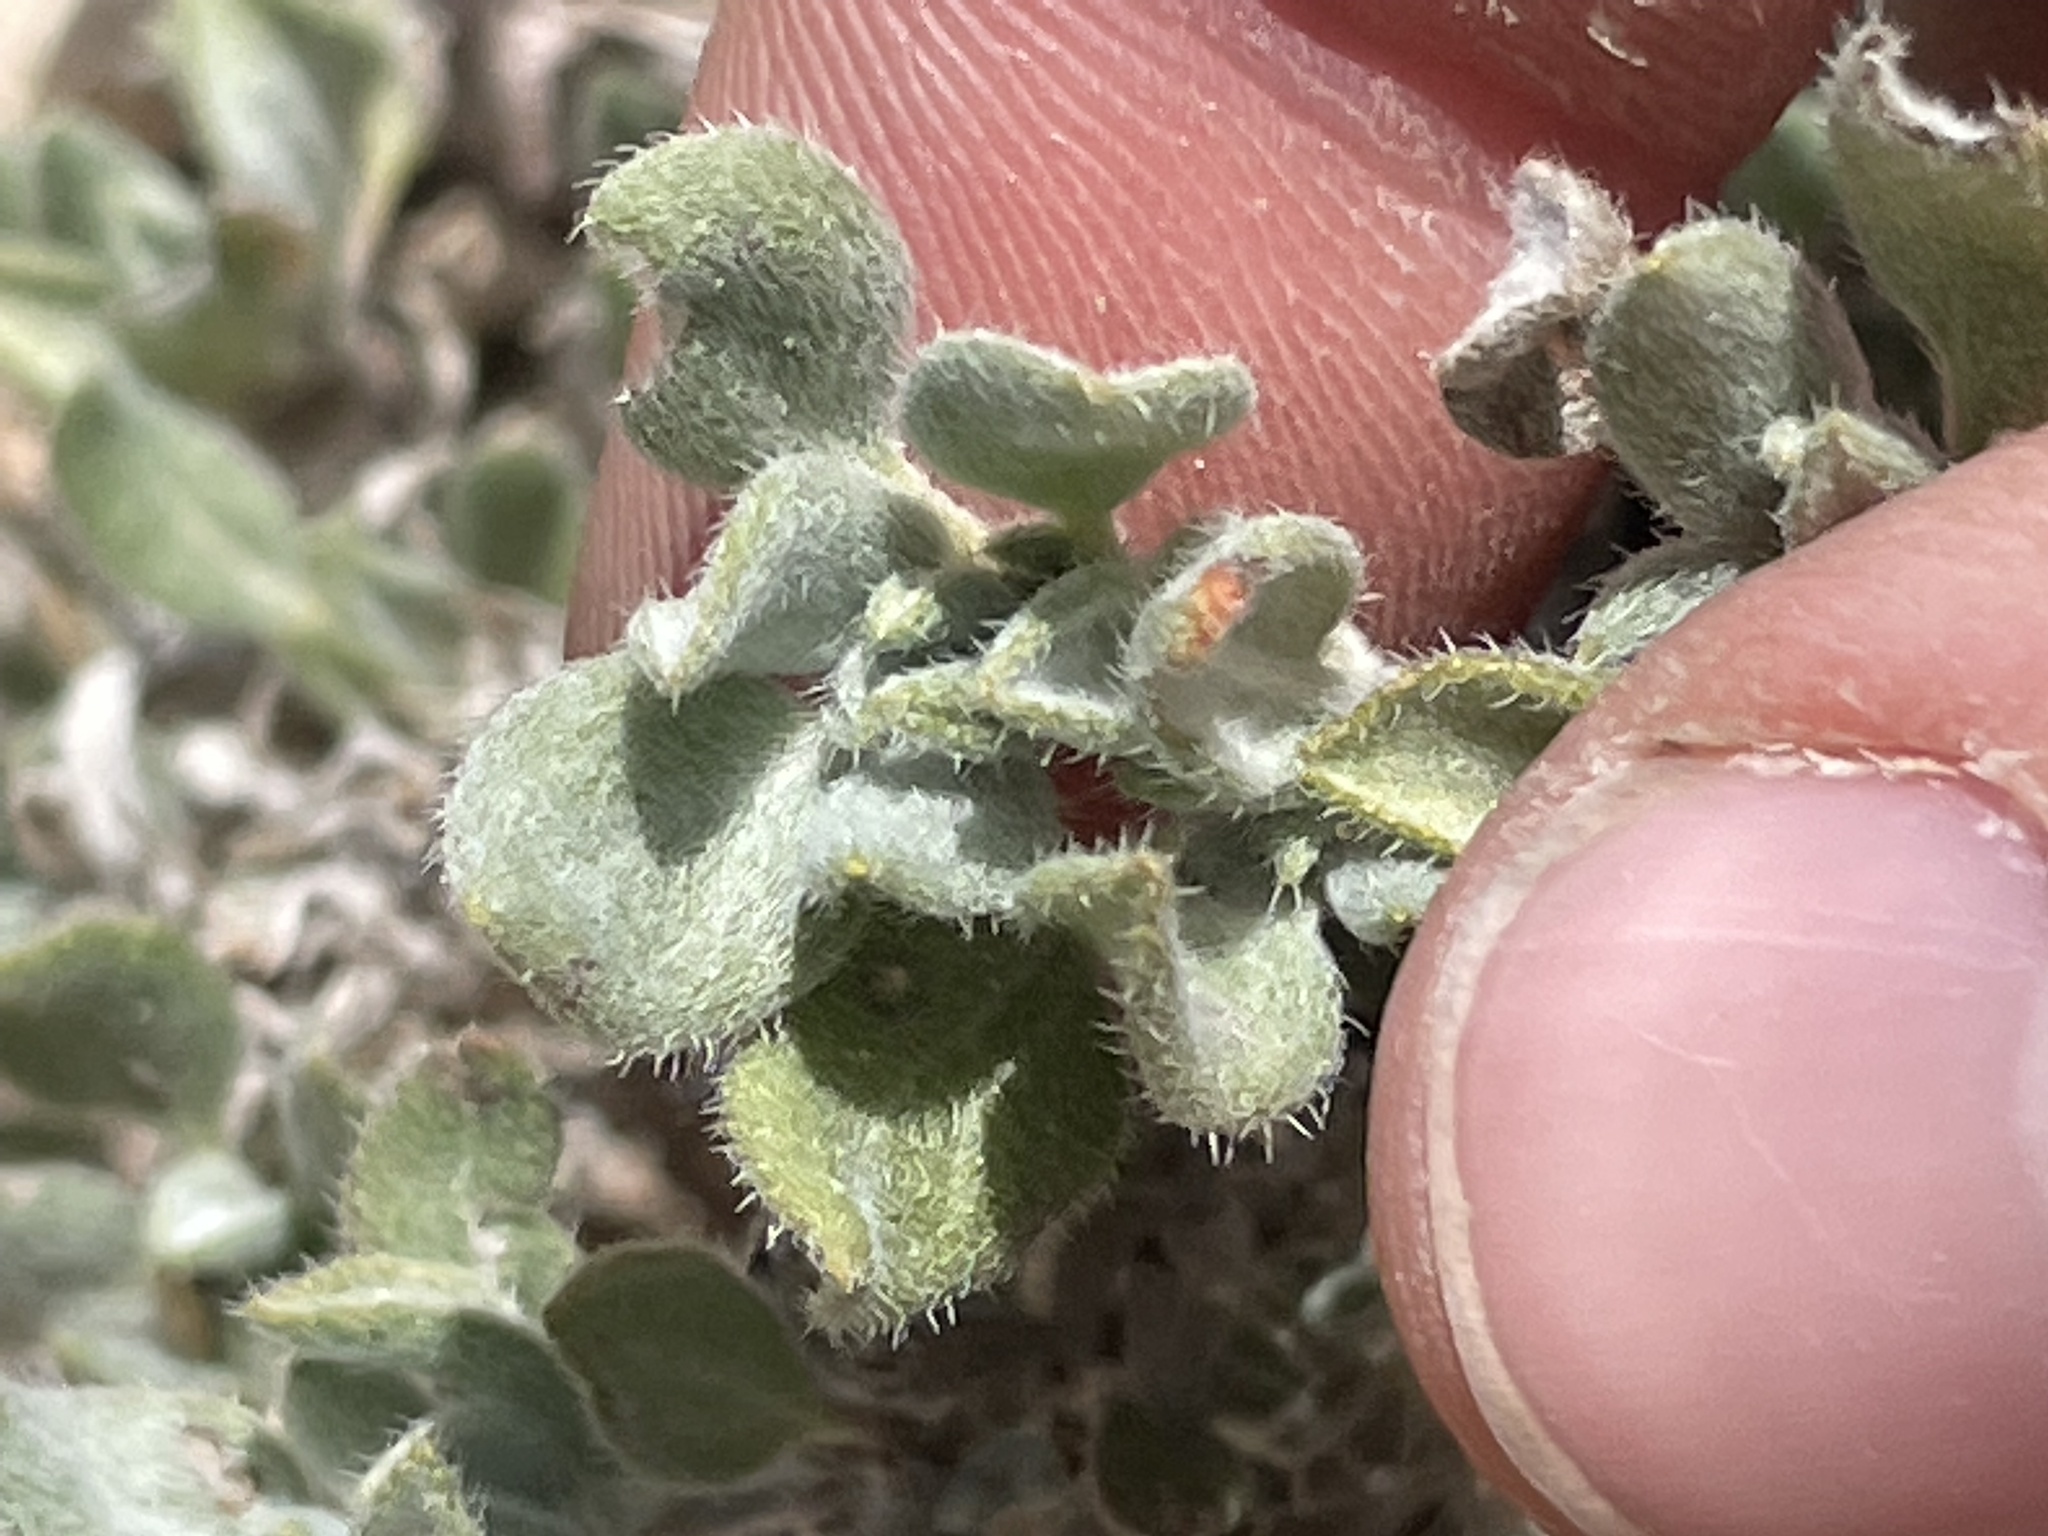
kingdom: Plantae
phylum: Tracheophyta
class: Magnoliopsida
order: Boraginales
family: Ehretiaceae
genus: Tiquilia
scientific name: Tiquilia canescens
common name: Hairy tiquilia
